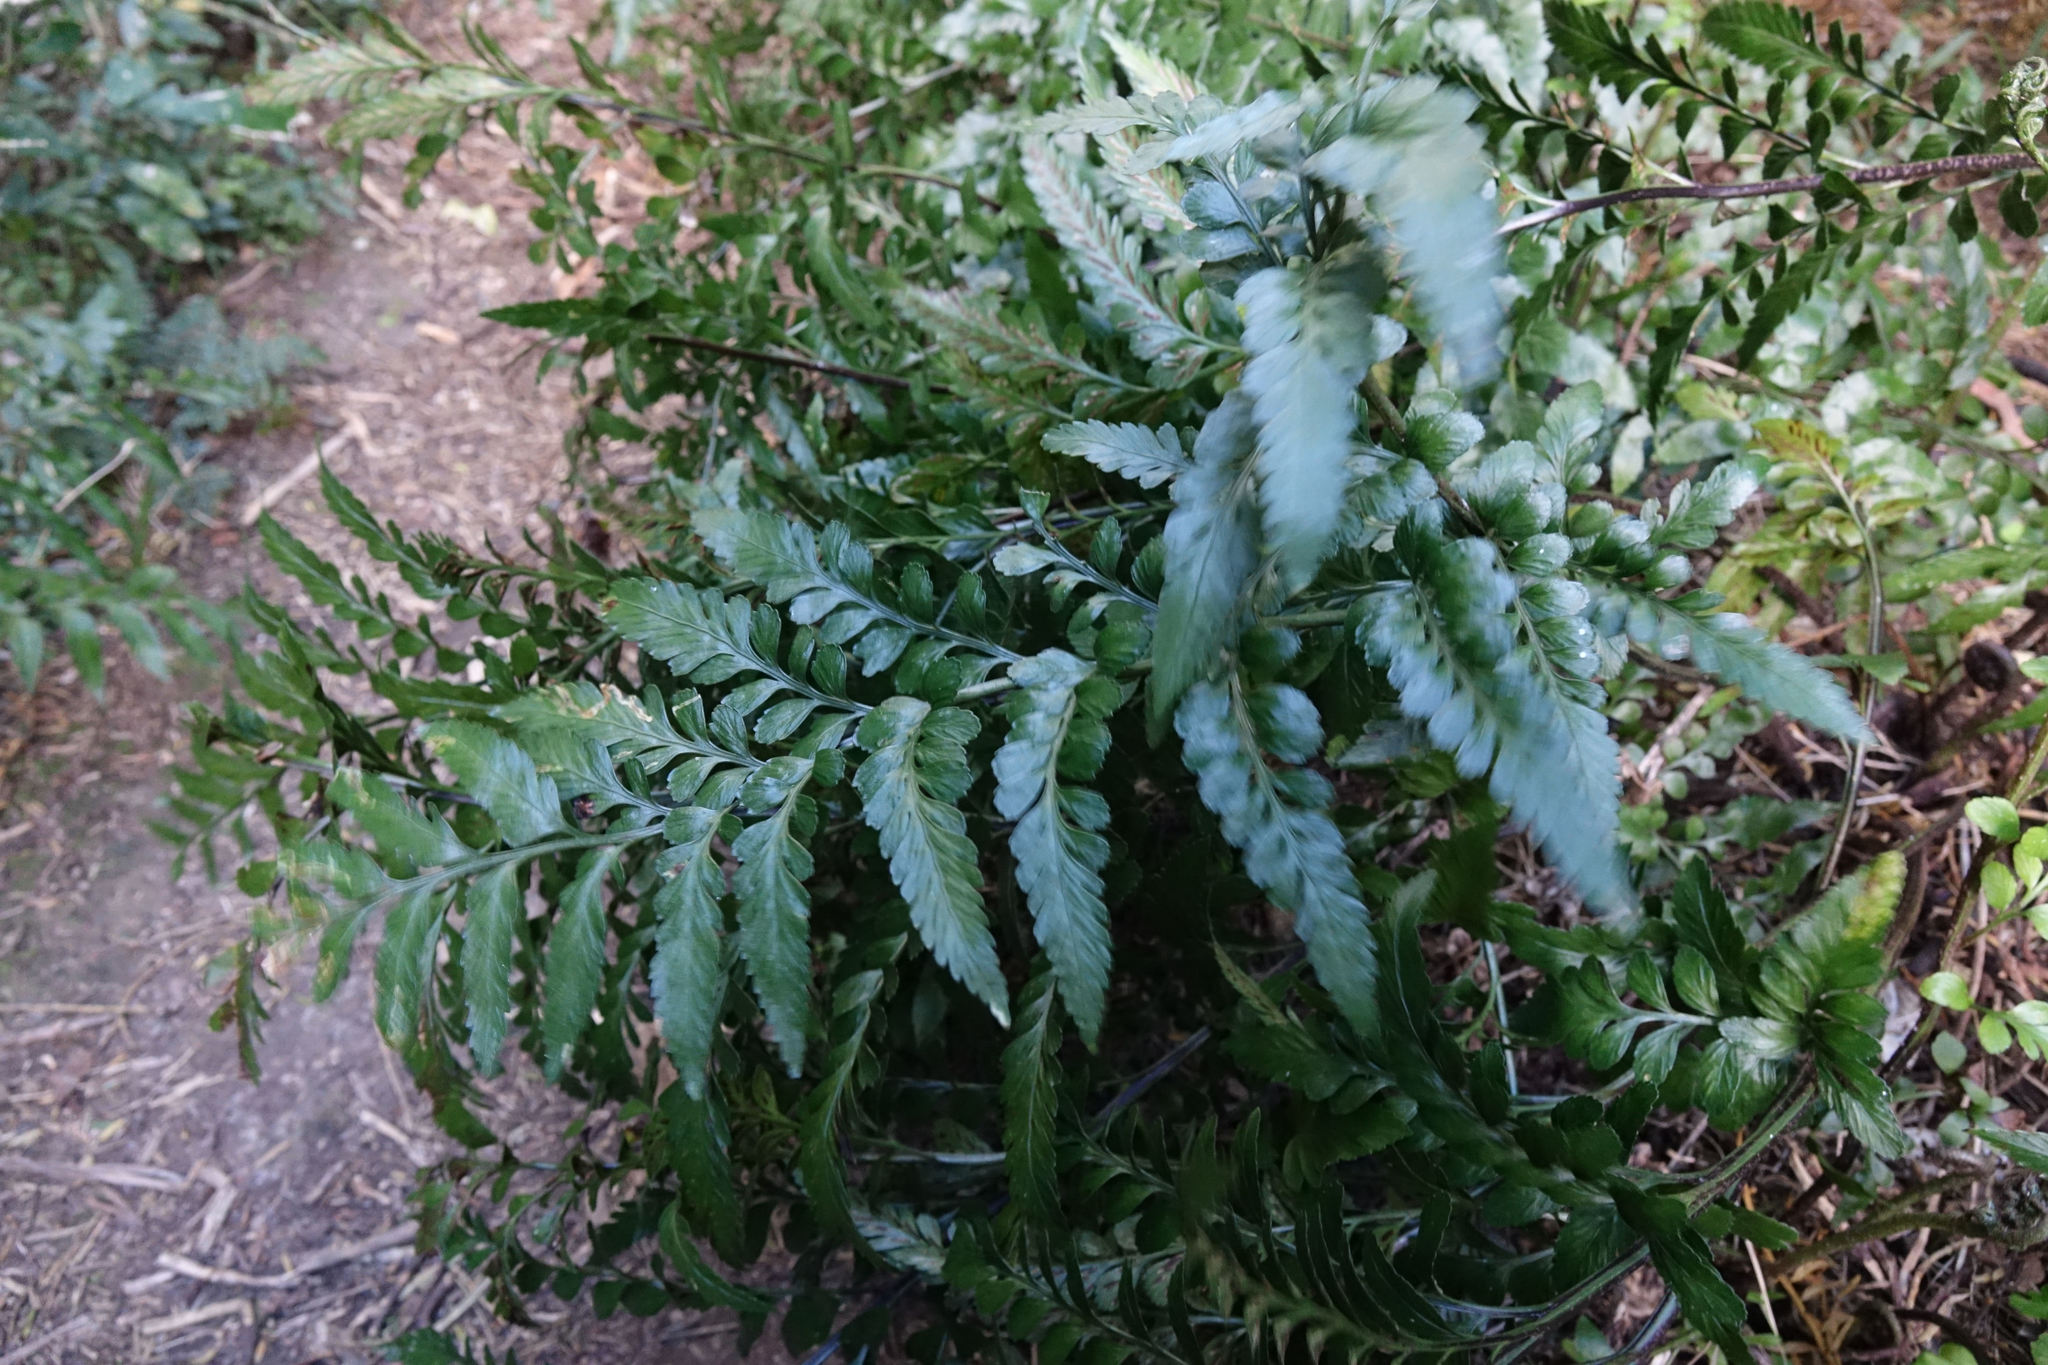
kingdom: Plantae
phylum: Tracheophyta
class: Polypodiopsida
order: Polypodiales
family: Aspleniaceae
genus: Asplenium
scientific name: Asplenium lyallii
